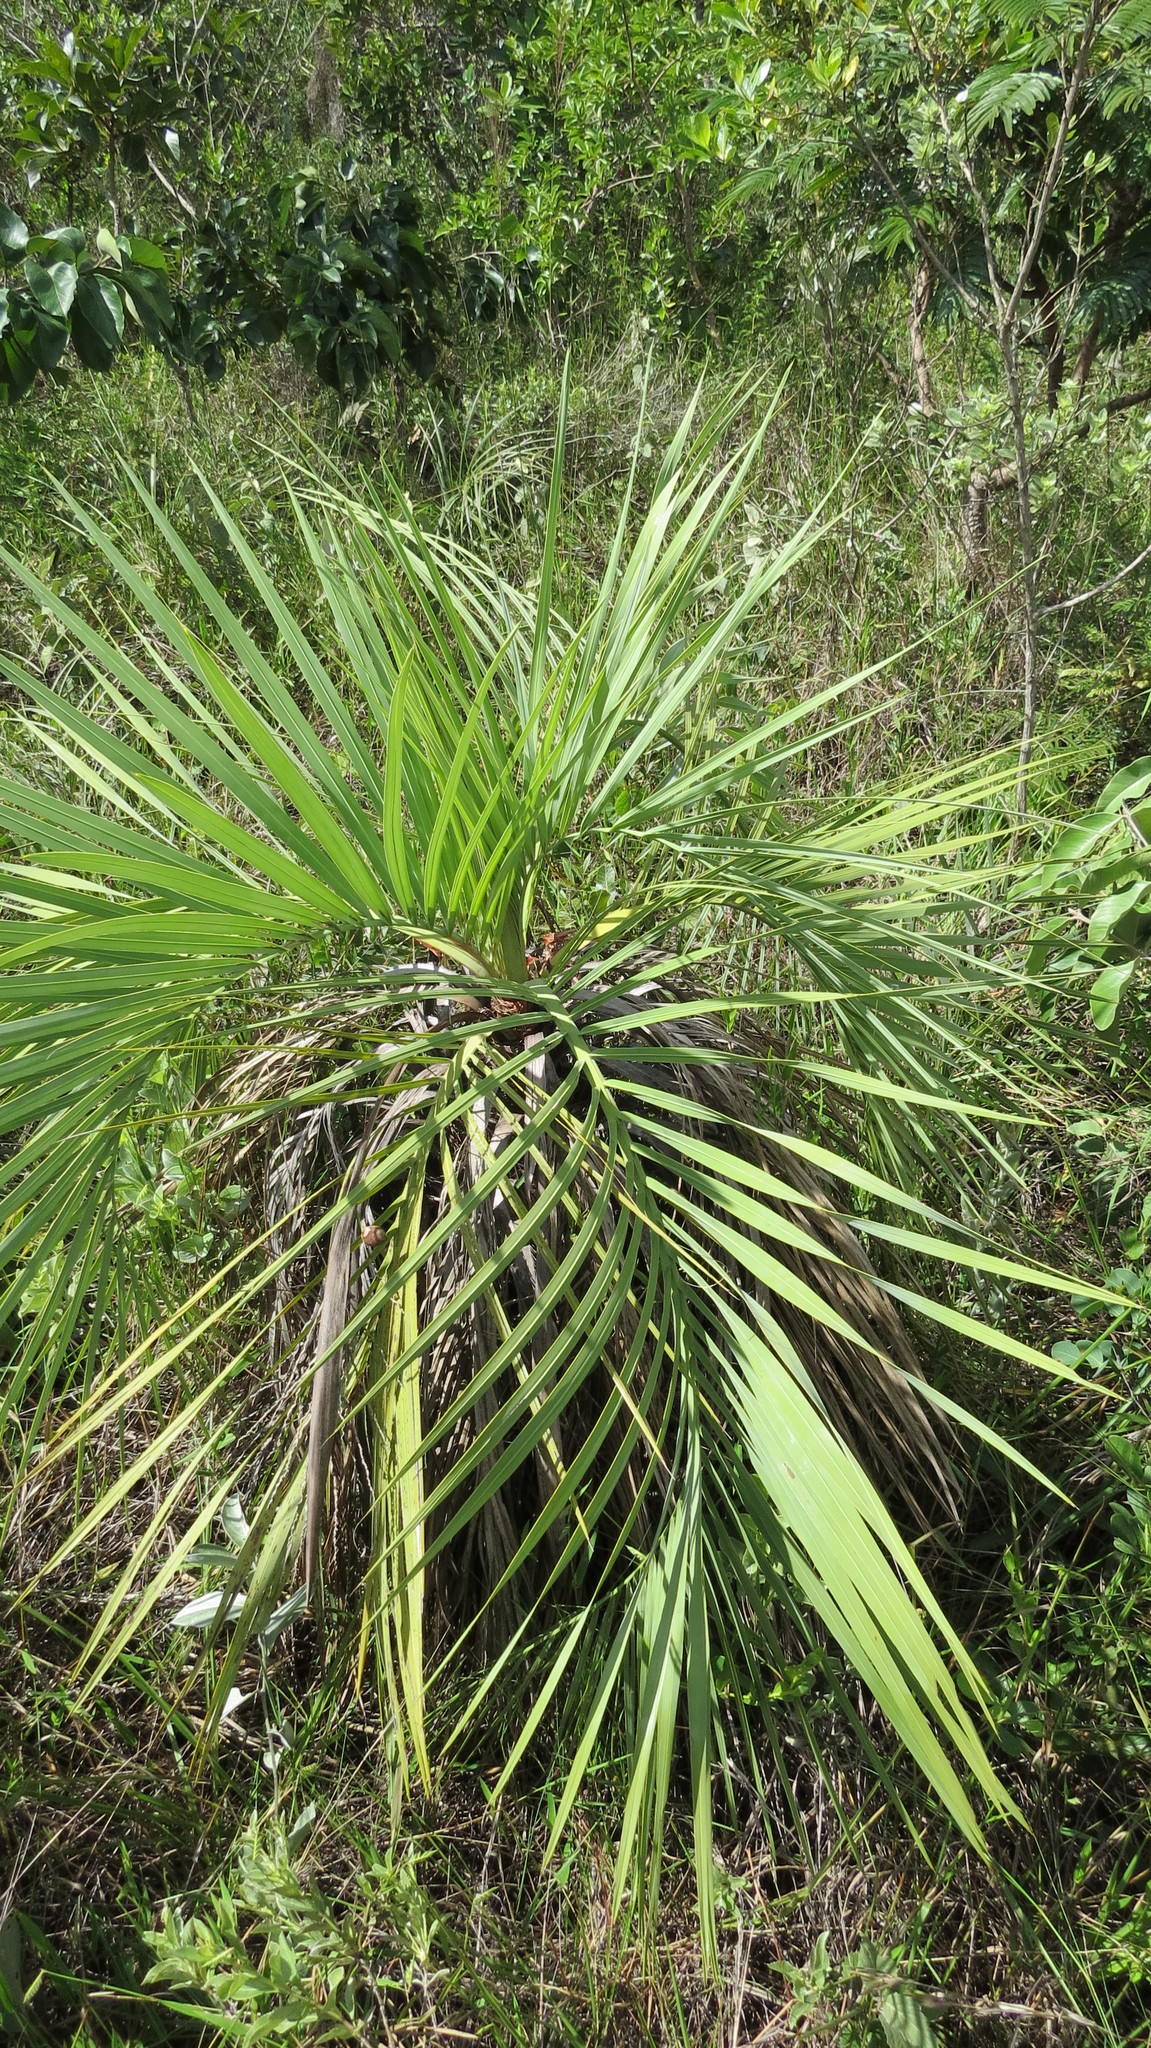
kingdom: Plantae
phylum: Tracheophyta
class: Liliopsida
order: Arecales
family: Arecaceae
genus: Butia
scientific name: Butia archeri
